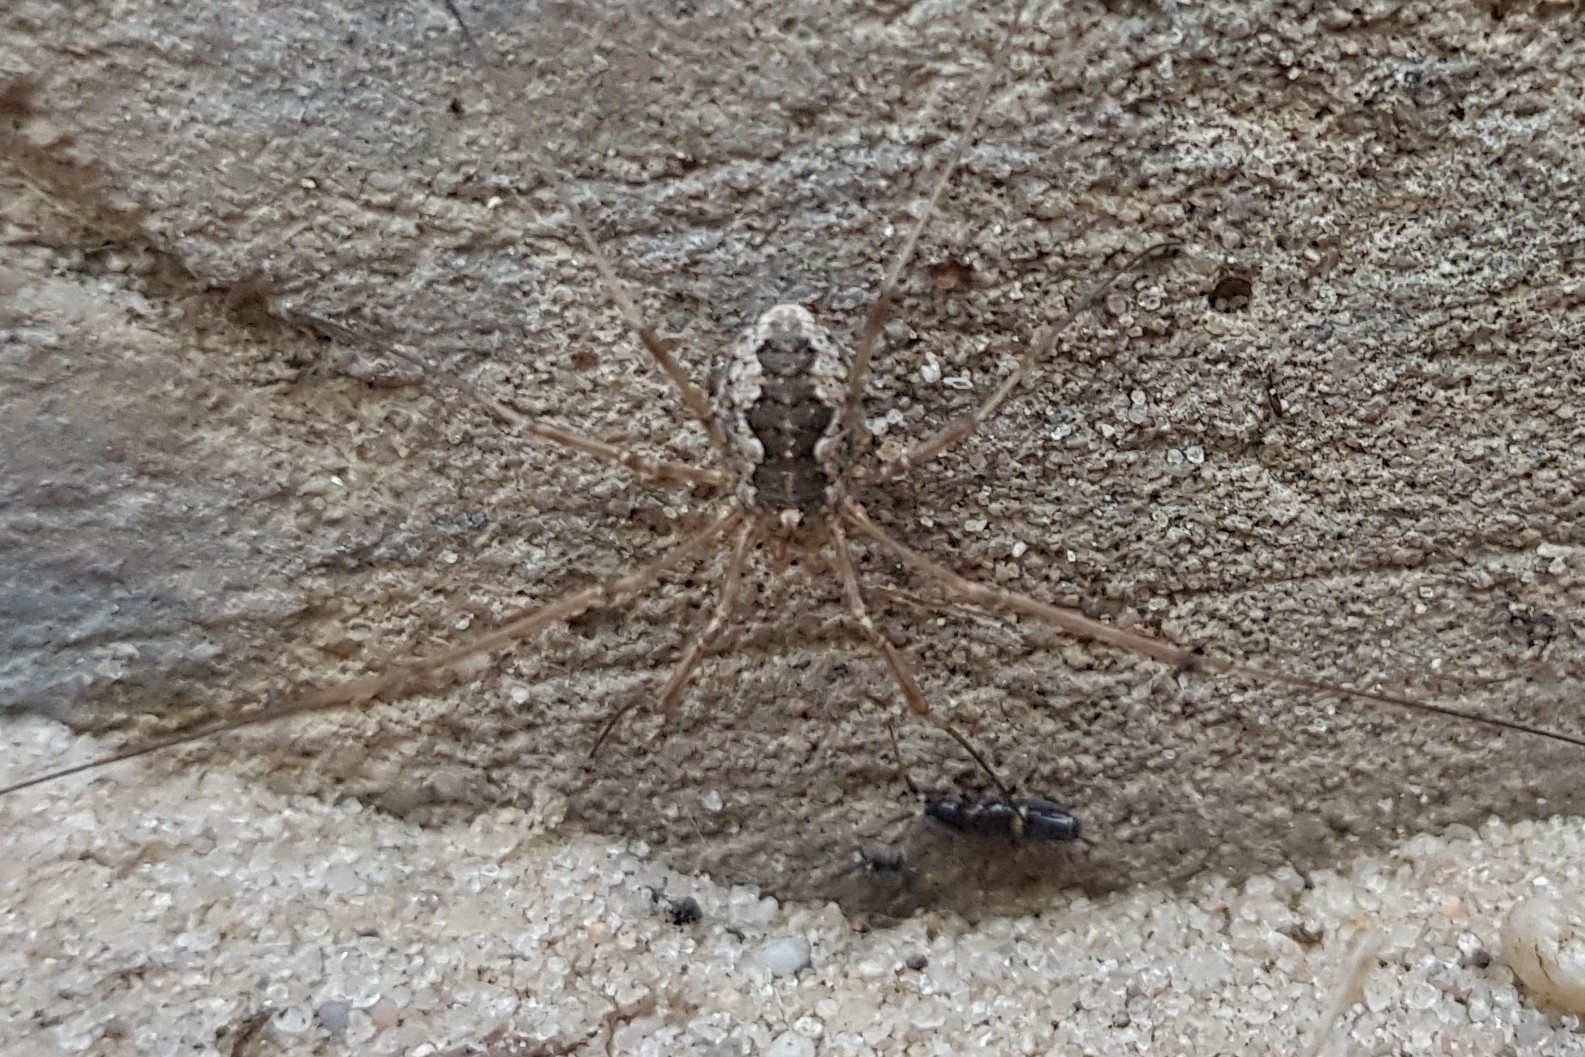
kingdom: Animalia
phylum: Arthropoda
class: Arachnida
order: Opiliones
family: Phalangiidae
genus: Phalangium
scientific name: Phalangium opilio
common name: Daddy longleg
